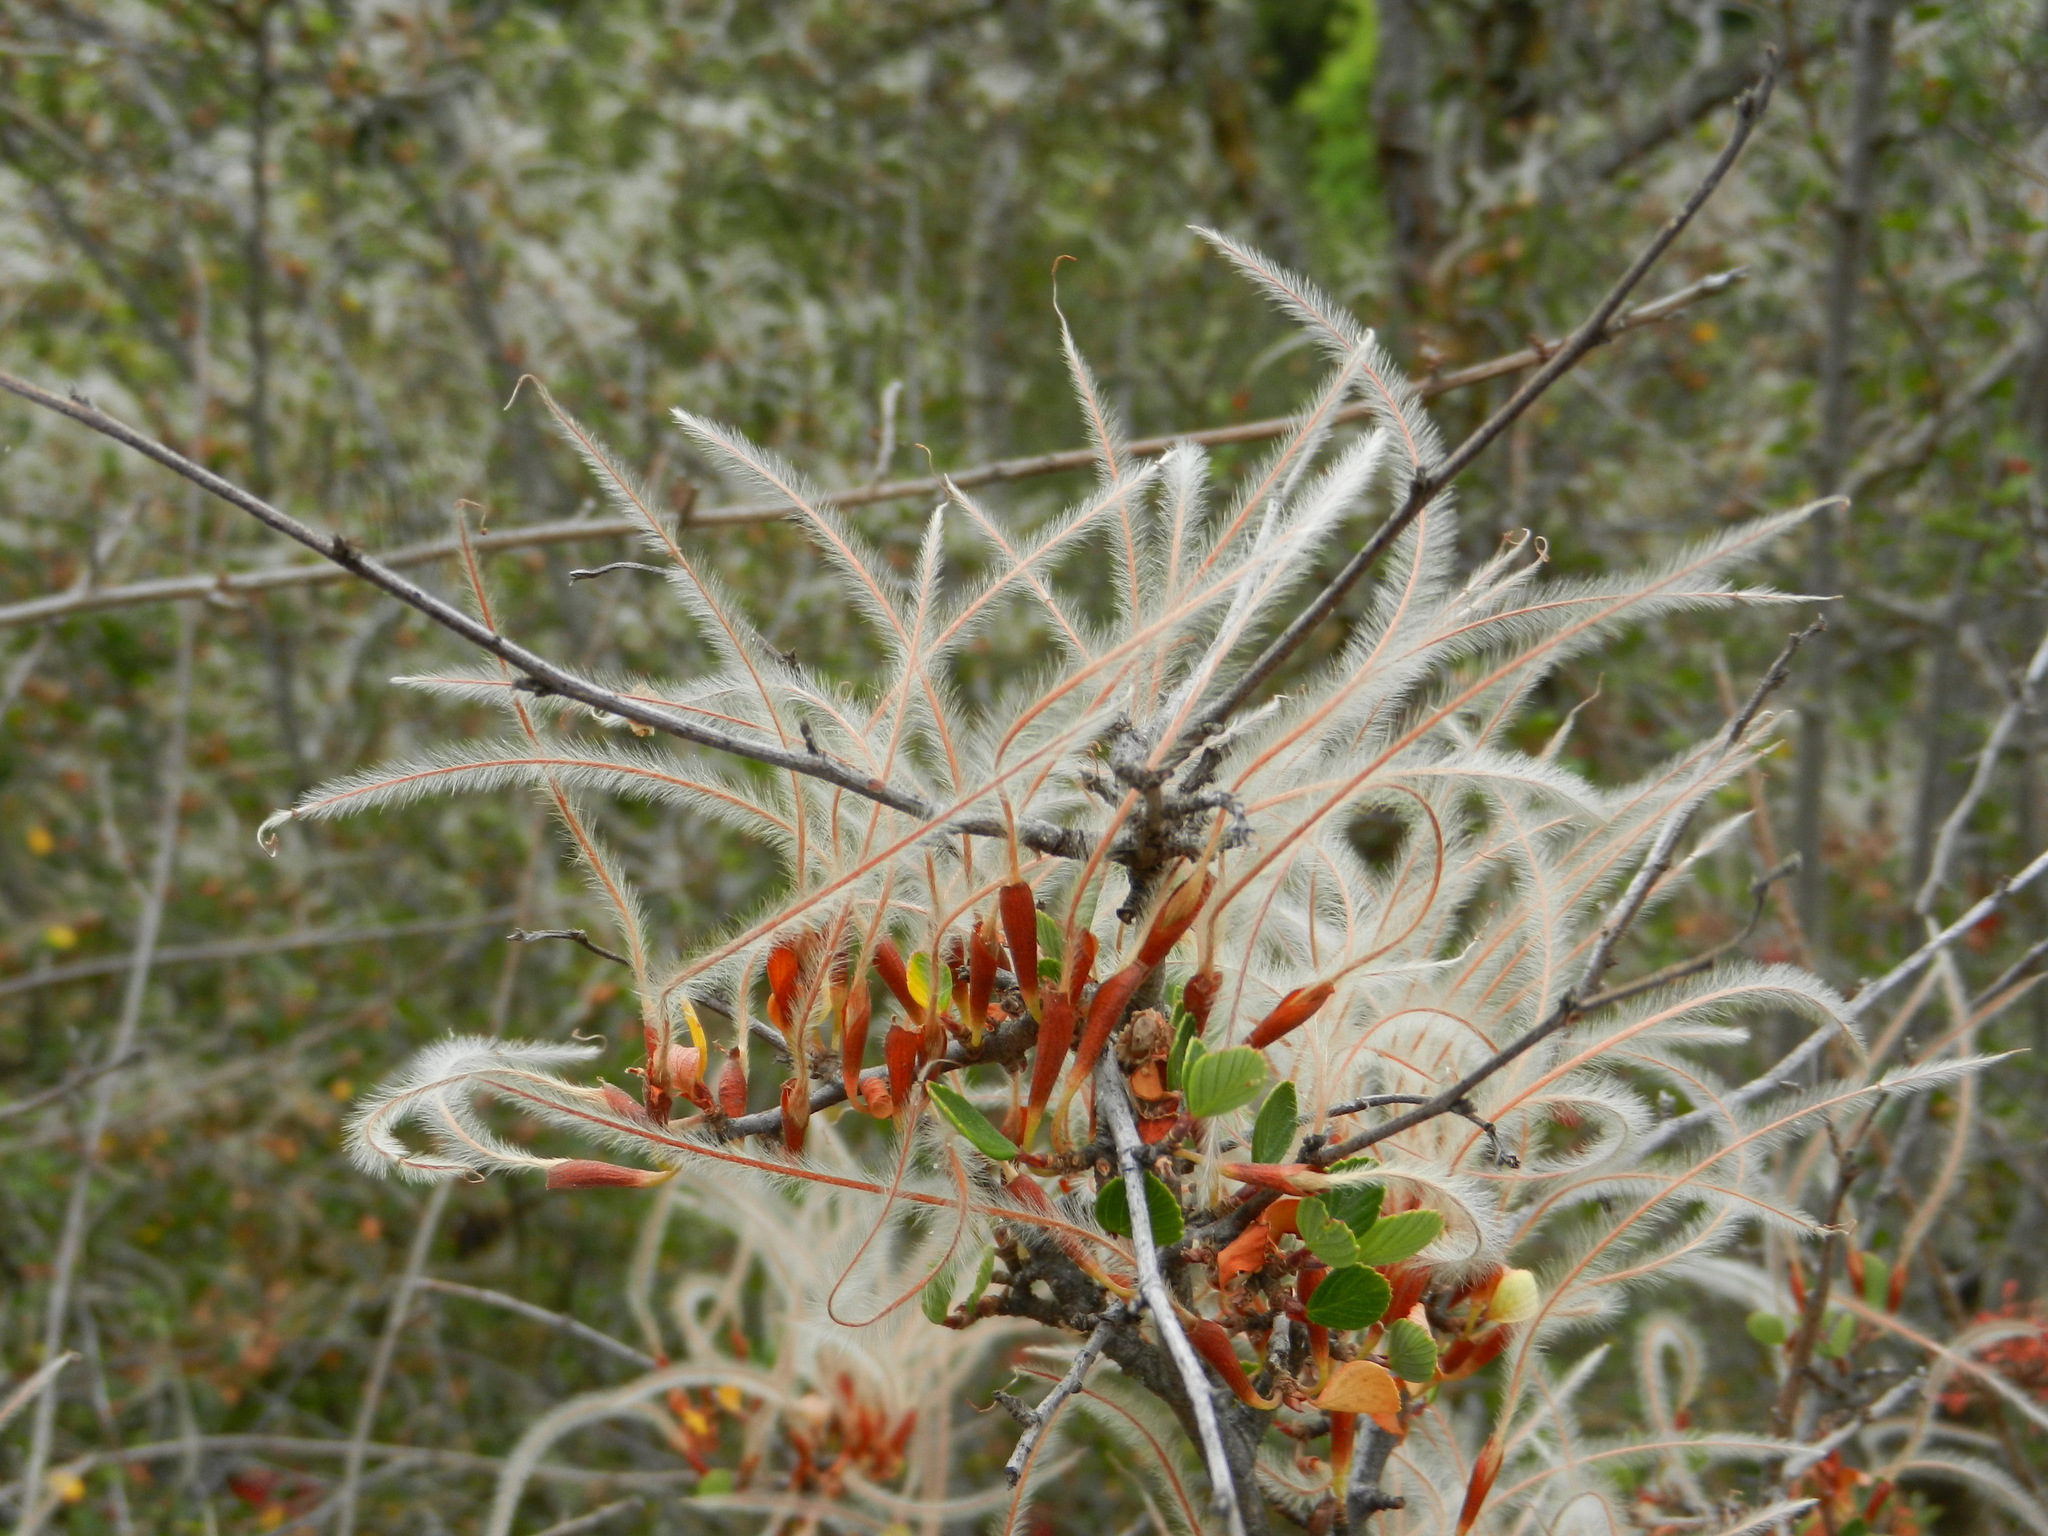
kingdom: Plantae
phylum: Tracheophyta
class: Magnoliopsida
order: Rosales
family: Rosaceae
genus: Cercocarpus
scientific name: Cercocarpus betuloides
